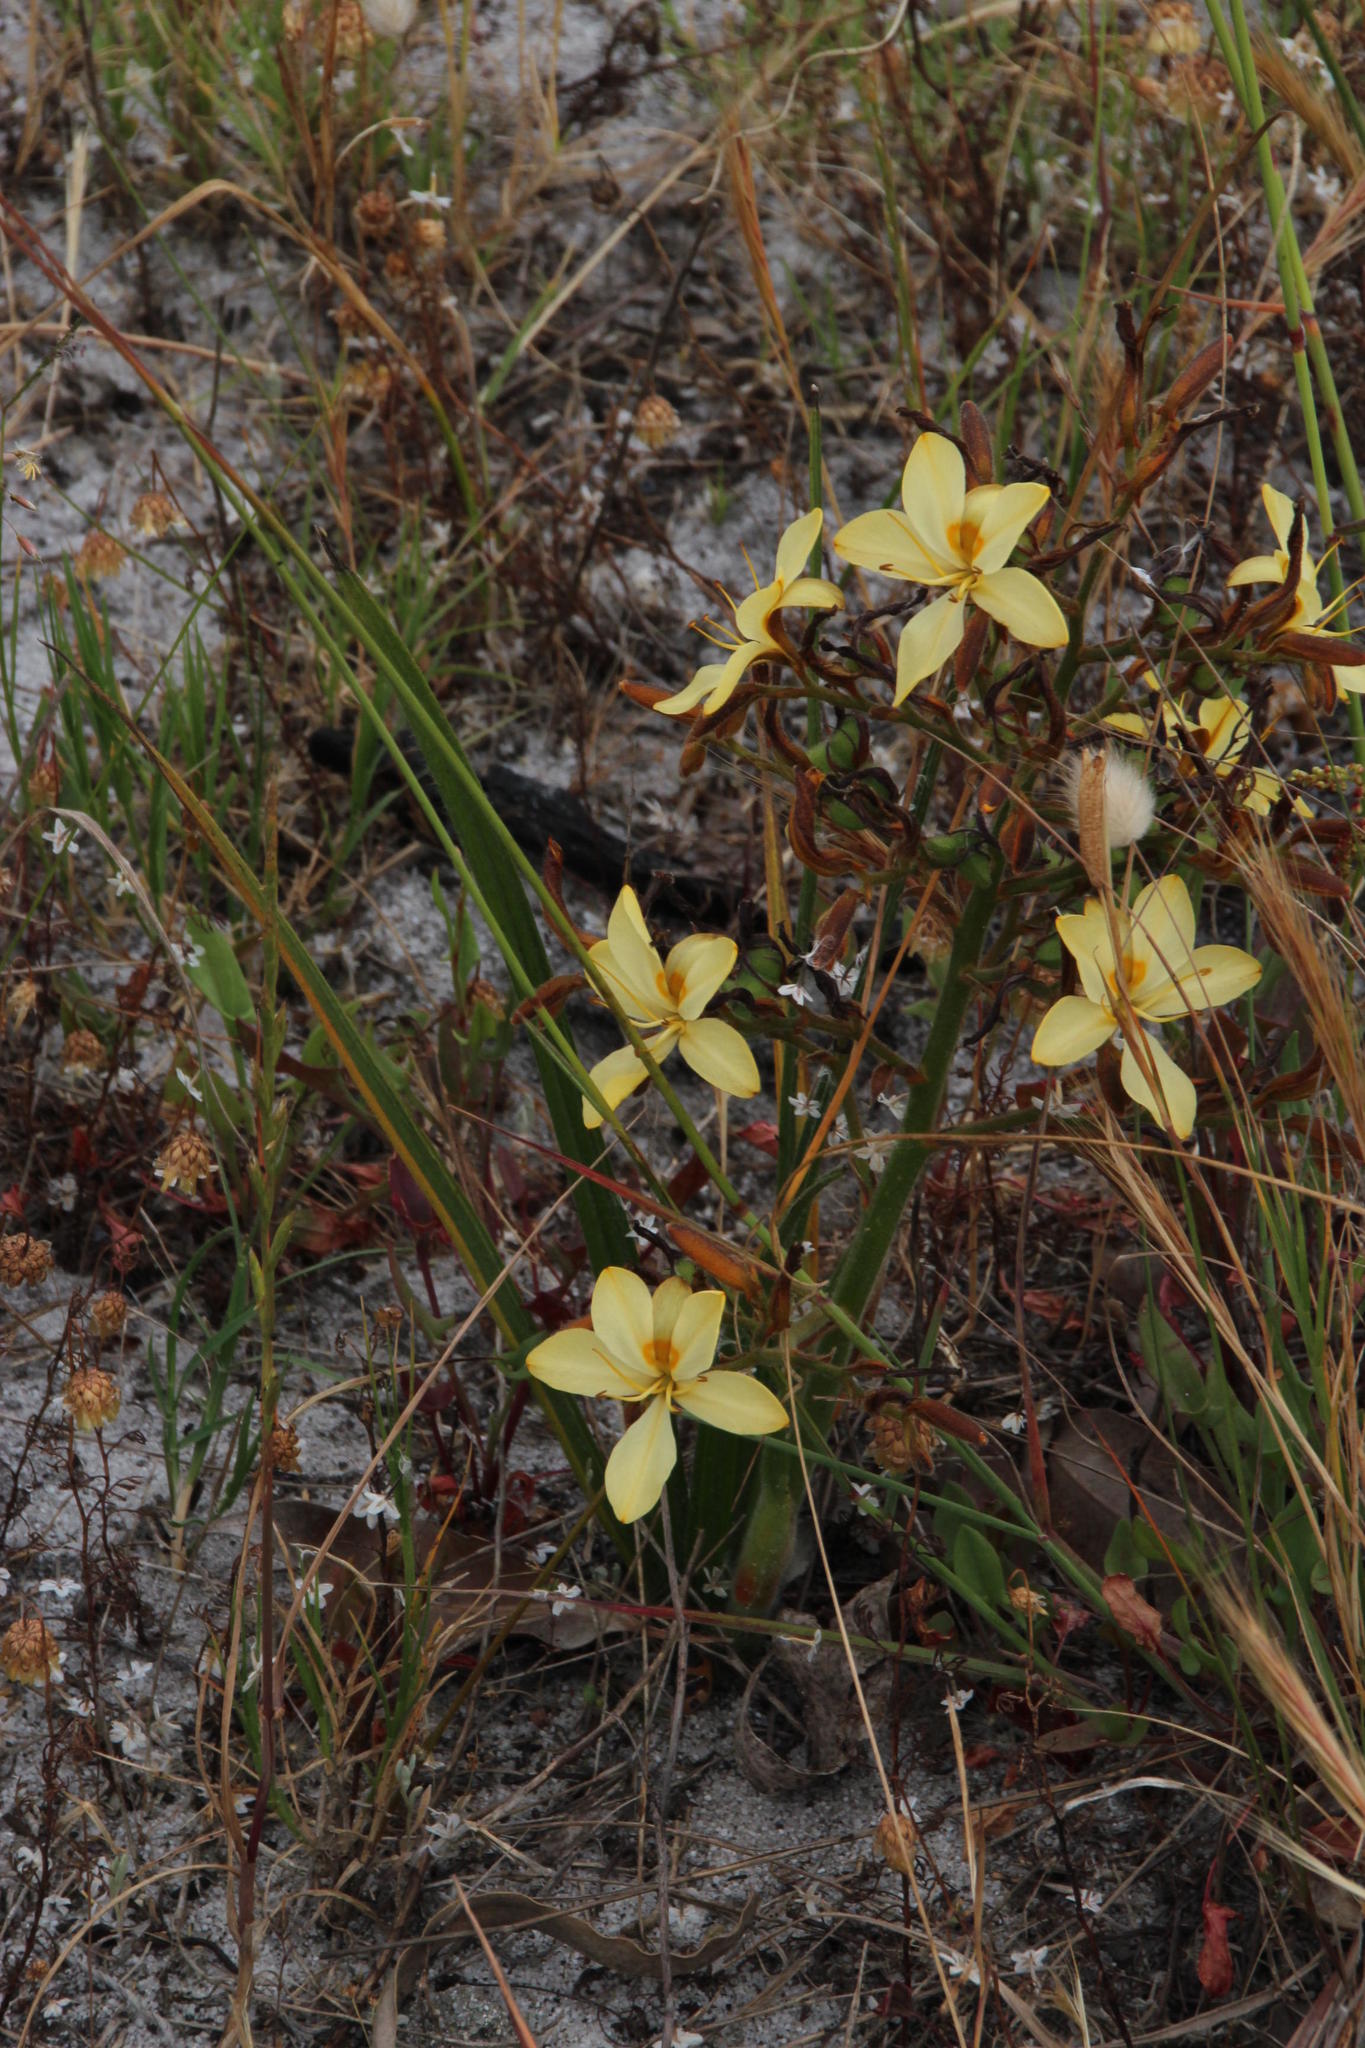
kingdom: Plantae
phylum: Tracheophyta
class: Liliopsida
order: Commelinales
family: Haemodoraceae
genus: Wachendorfia
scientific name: Wachendorfia paniculata
